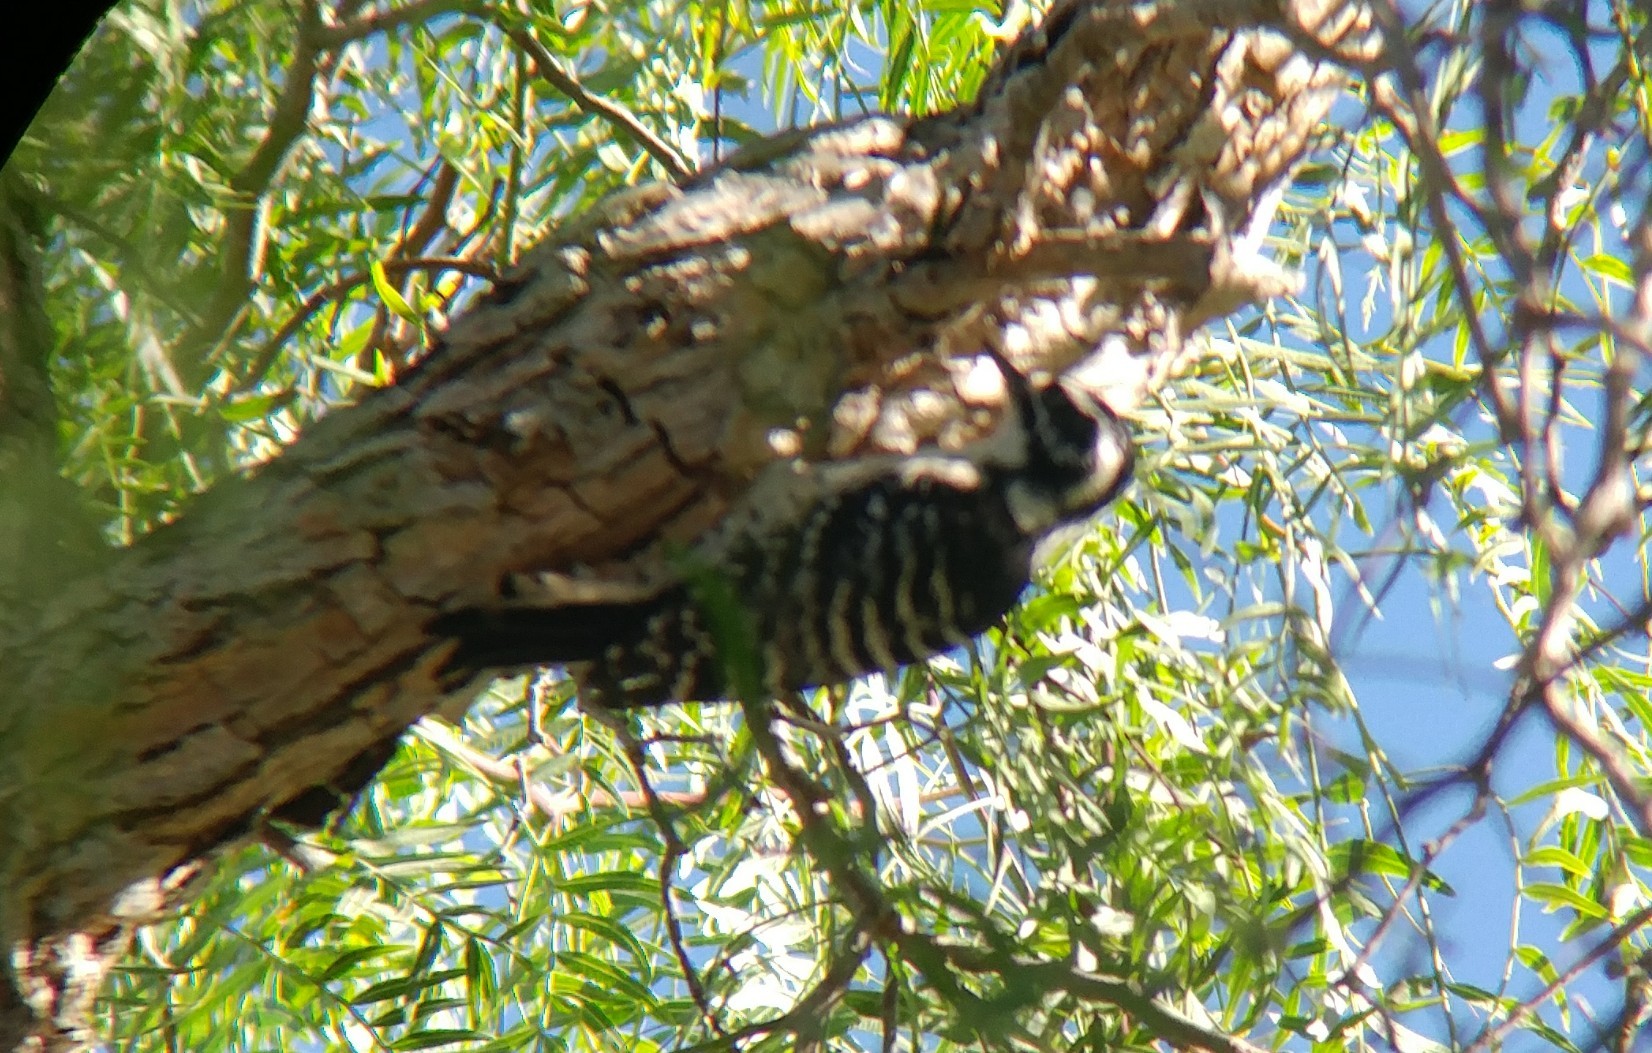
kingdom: Animalia
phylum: Chordata
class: Aves
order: Piciformes
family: Picidae
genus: Dryobates
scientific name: Dryobates nuttallii
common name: Nuttall's woodpecker
